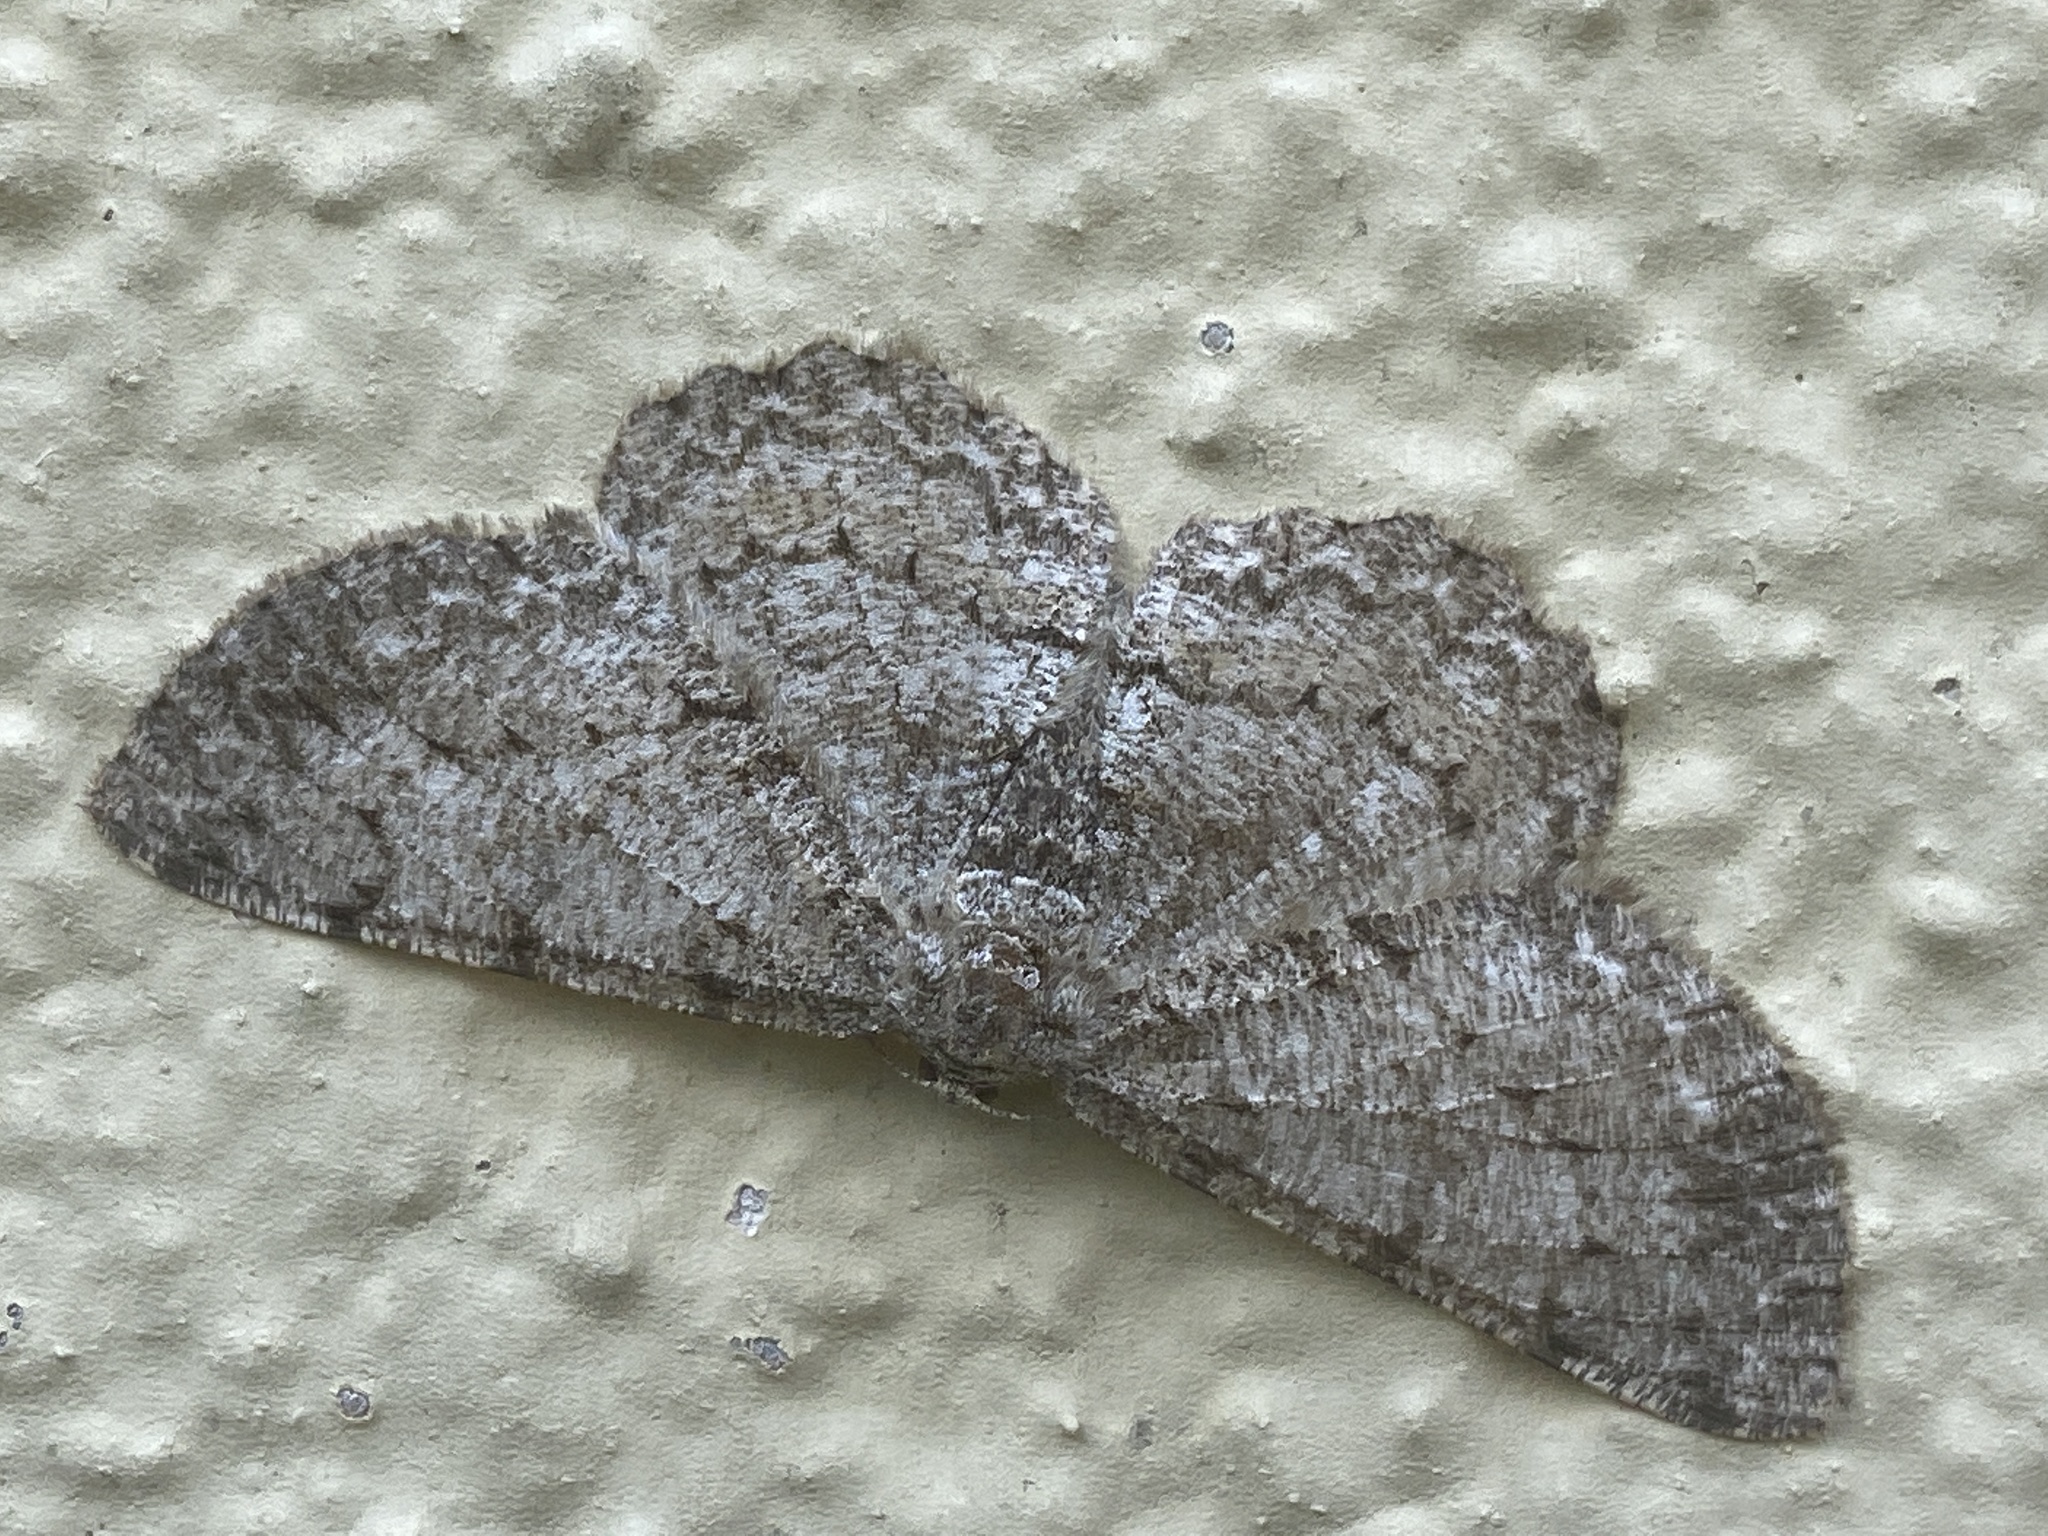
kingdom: Animalia
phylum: Arthropoda
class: Insecta
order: Lepidoptera
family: Geometridae
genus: Hypomecis
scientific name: Hypomecis punctinalis
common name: Pale oak beauty
